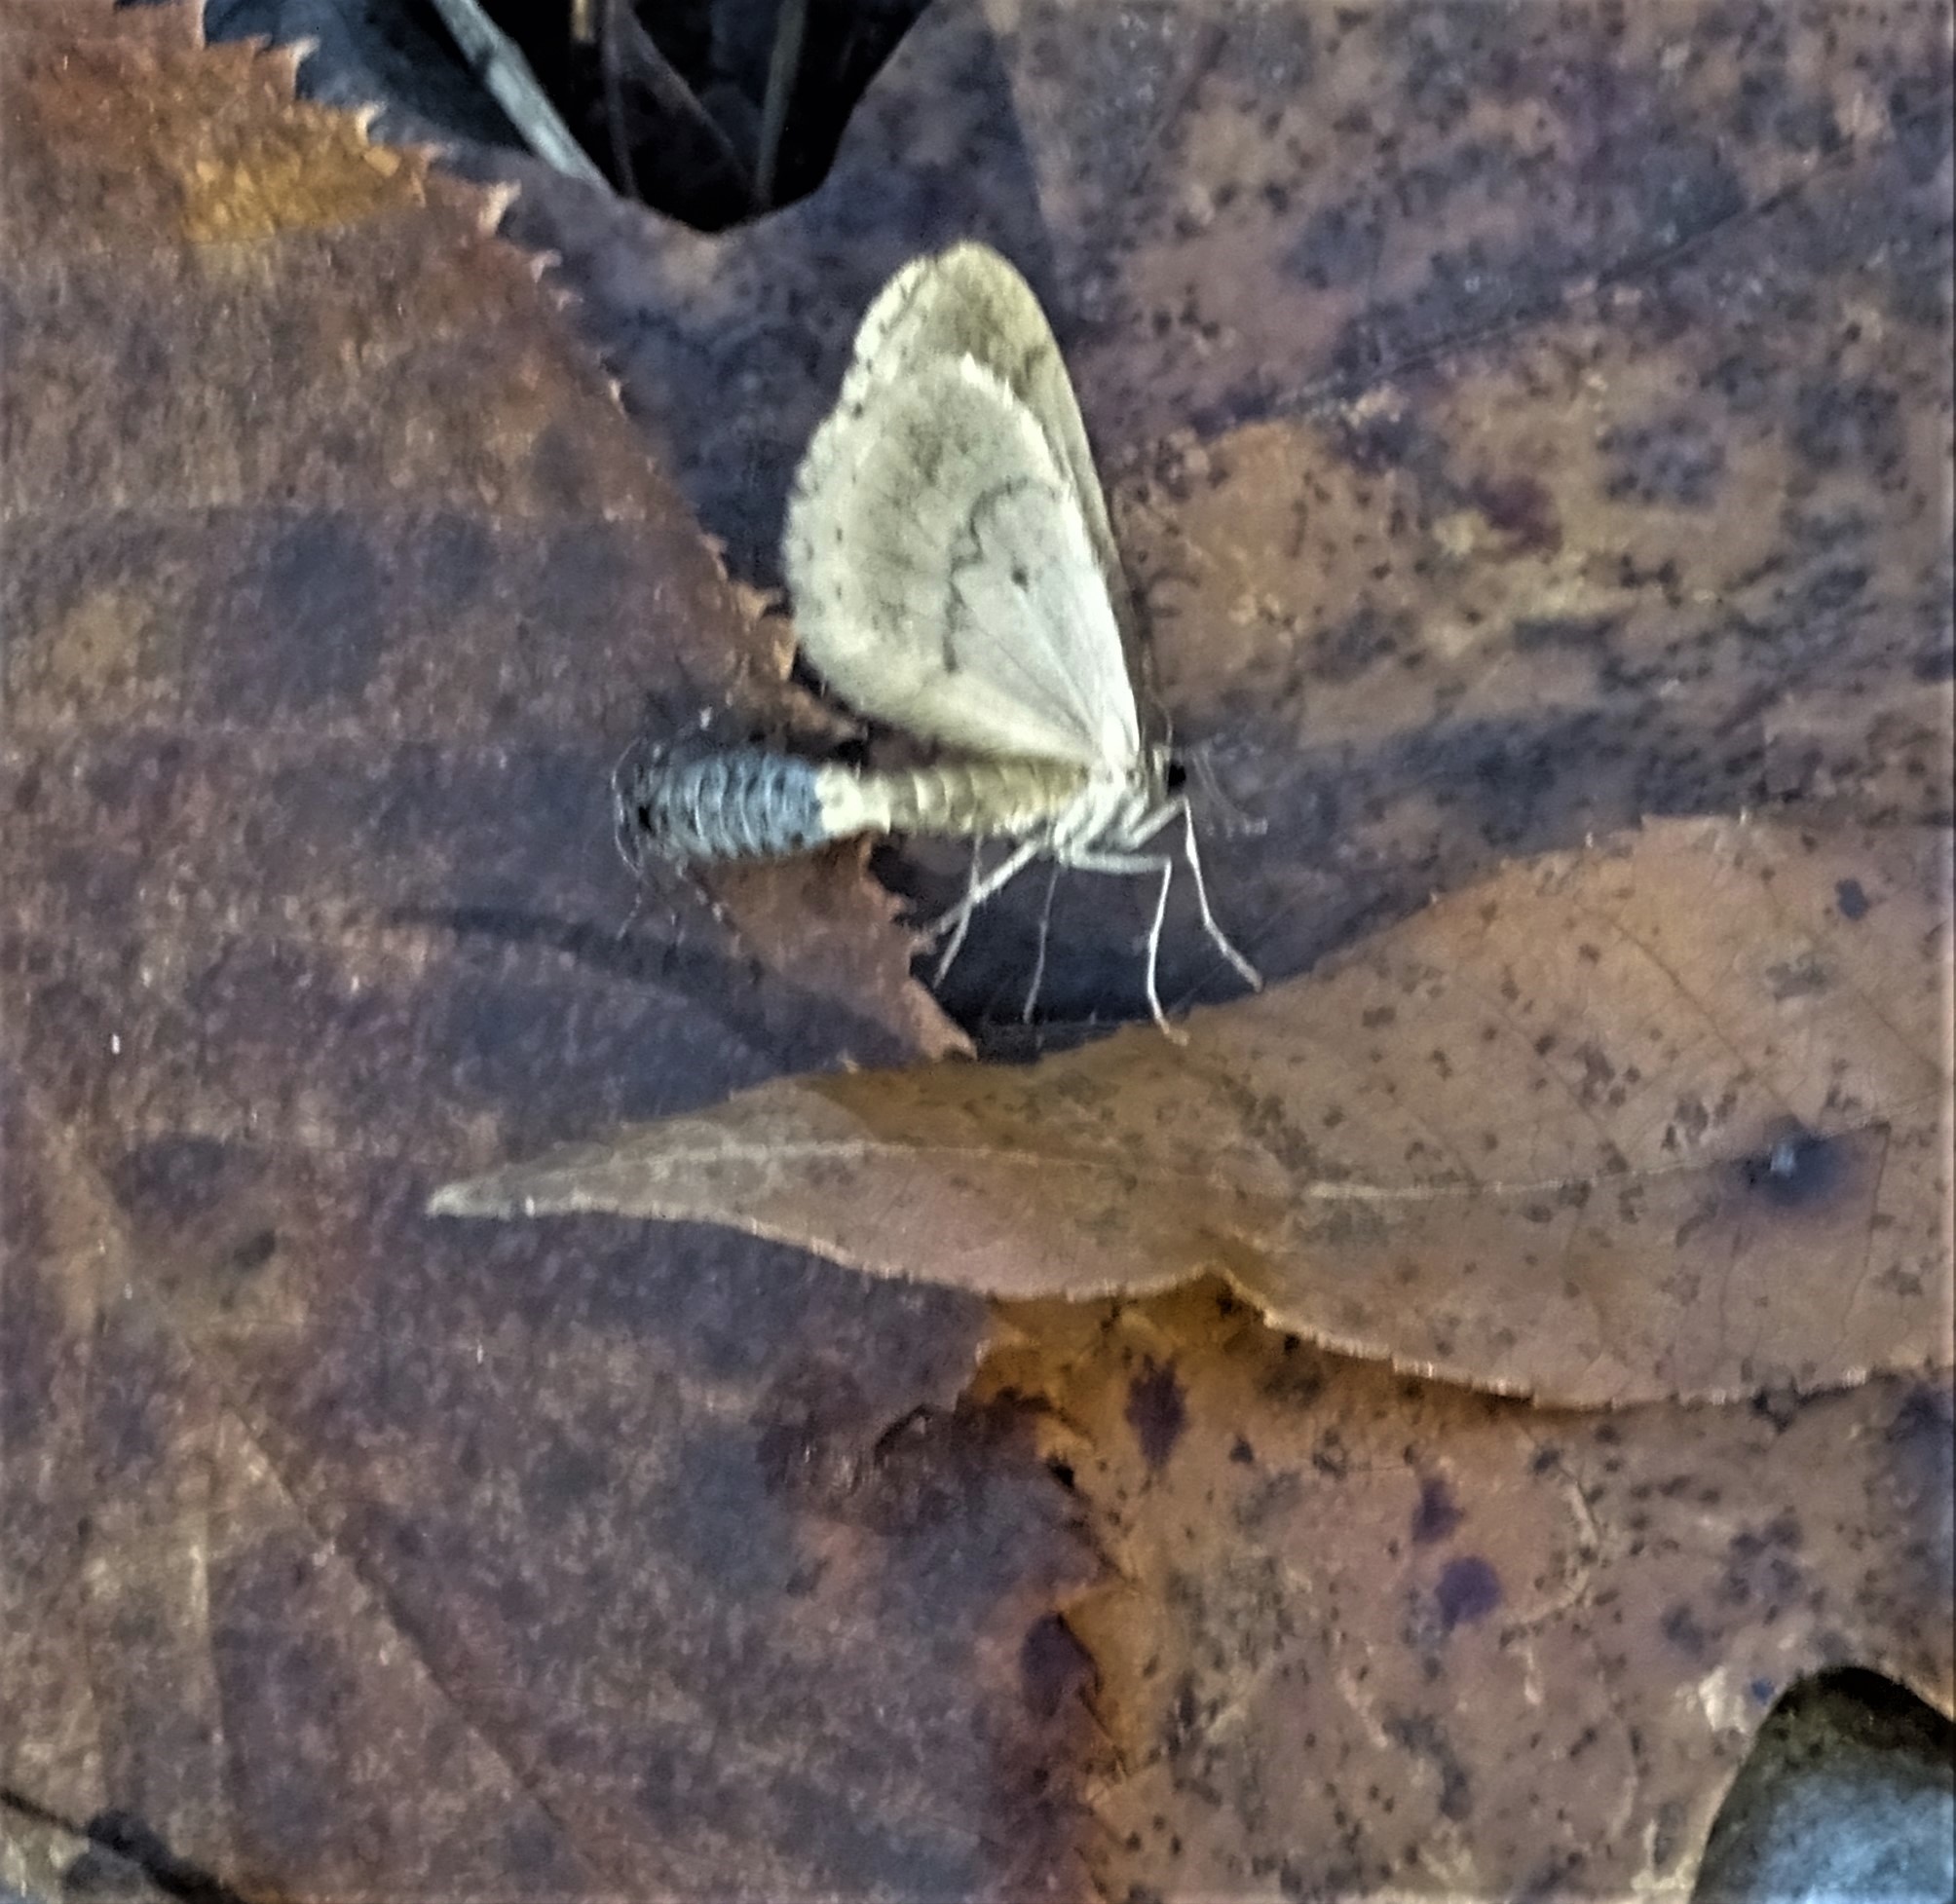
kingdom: Animalia
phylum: Arthropoda
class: Insecta
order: Lepidoptera
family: Geometridae
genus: Operophtera
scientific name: Operophtera bruceata
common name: Bruce spanworm
